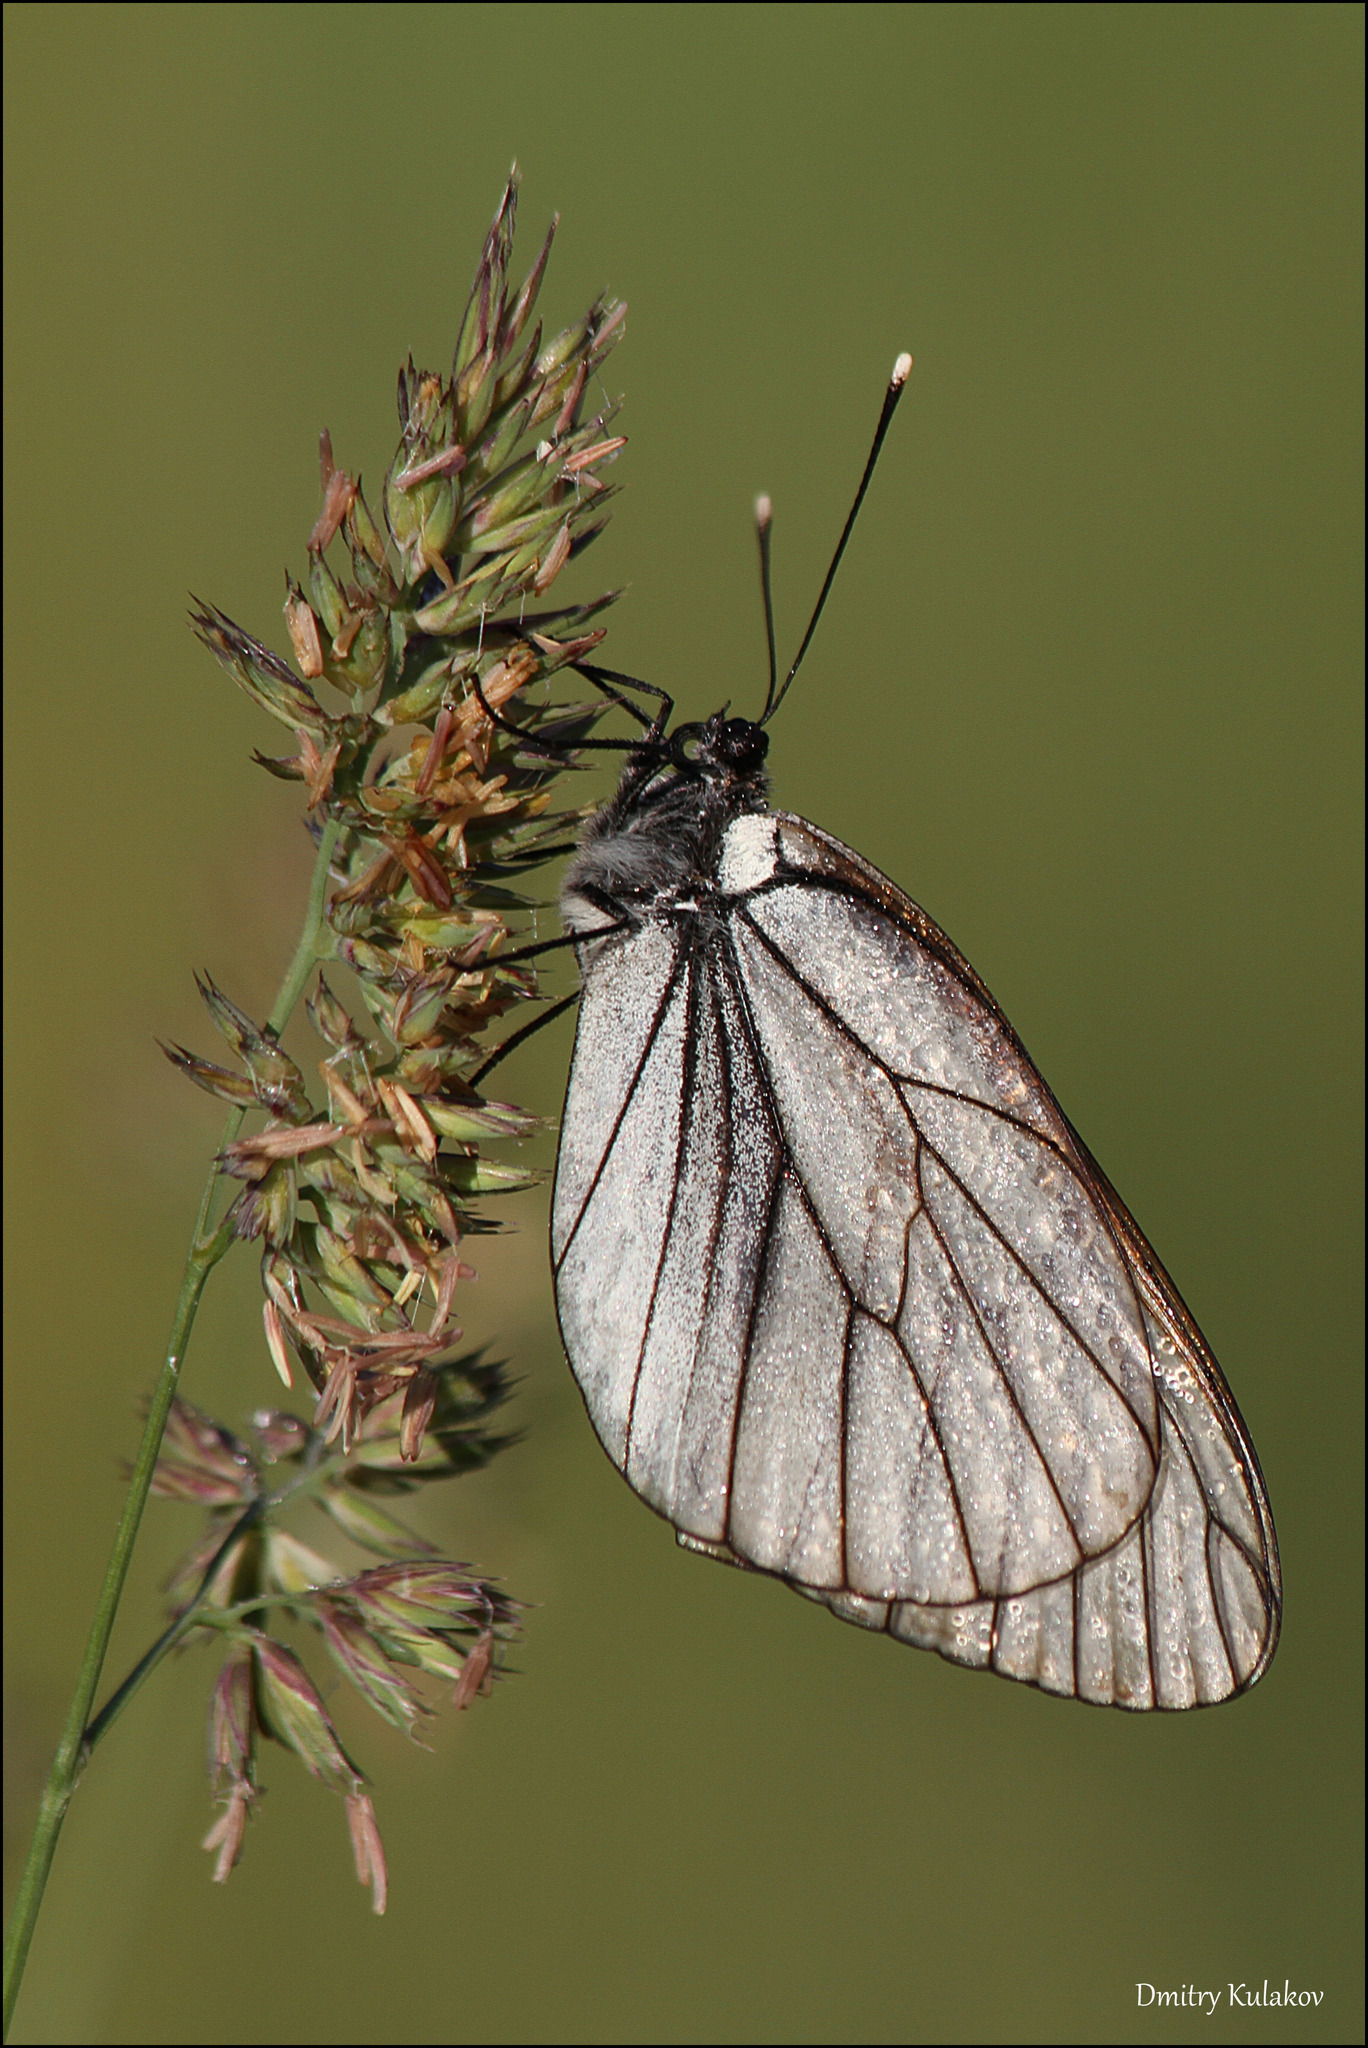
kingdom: Animalia
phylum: Arthropoda
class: Insecta
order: Lepidoptera
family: Pieridae
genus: Aporia
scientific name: Aporia crataegi
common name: Black-veined white
